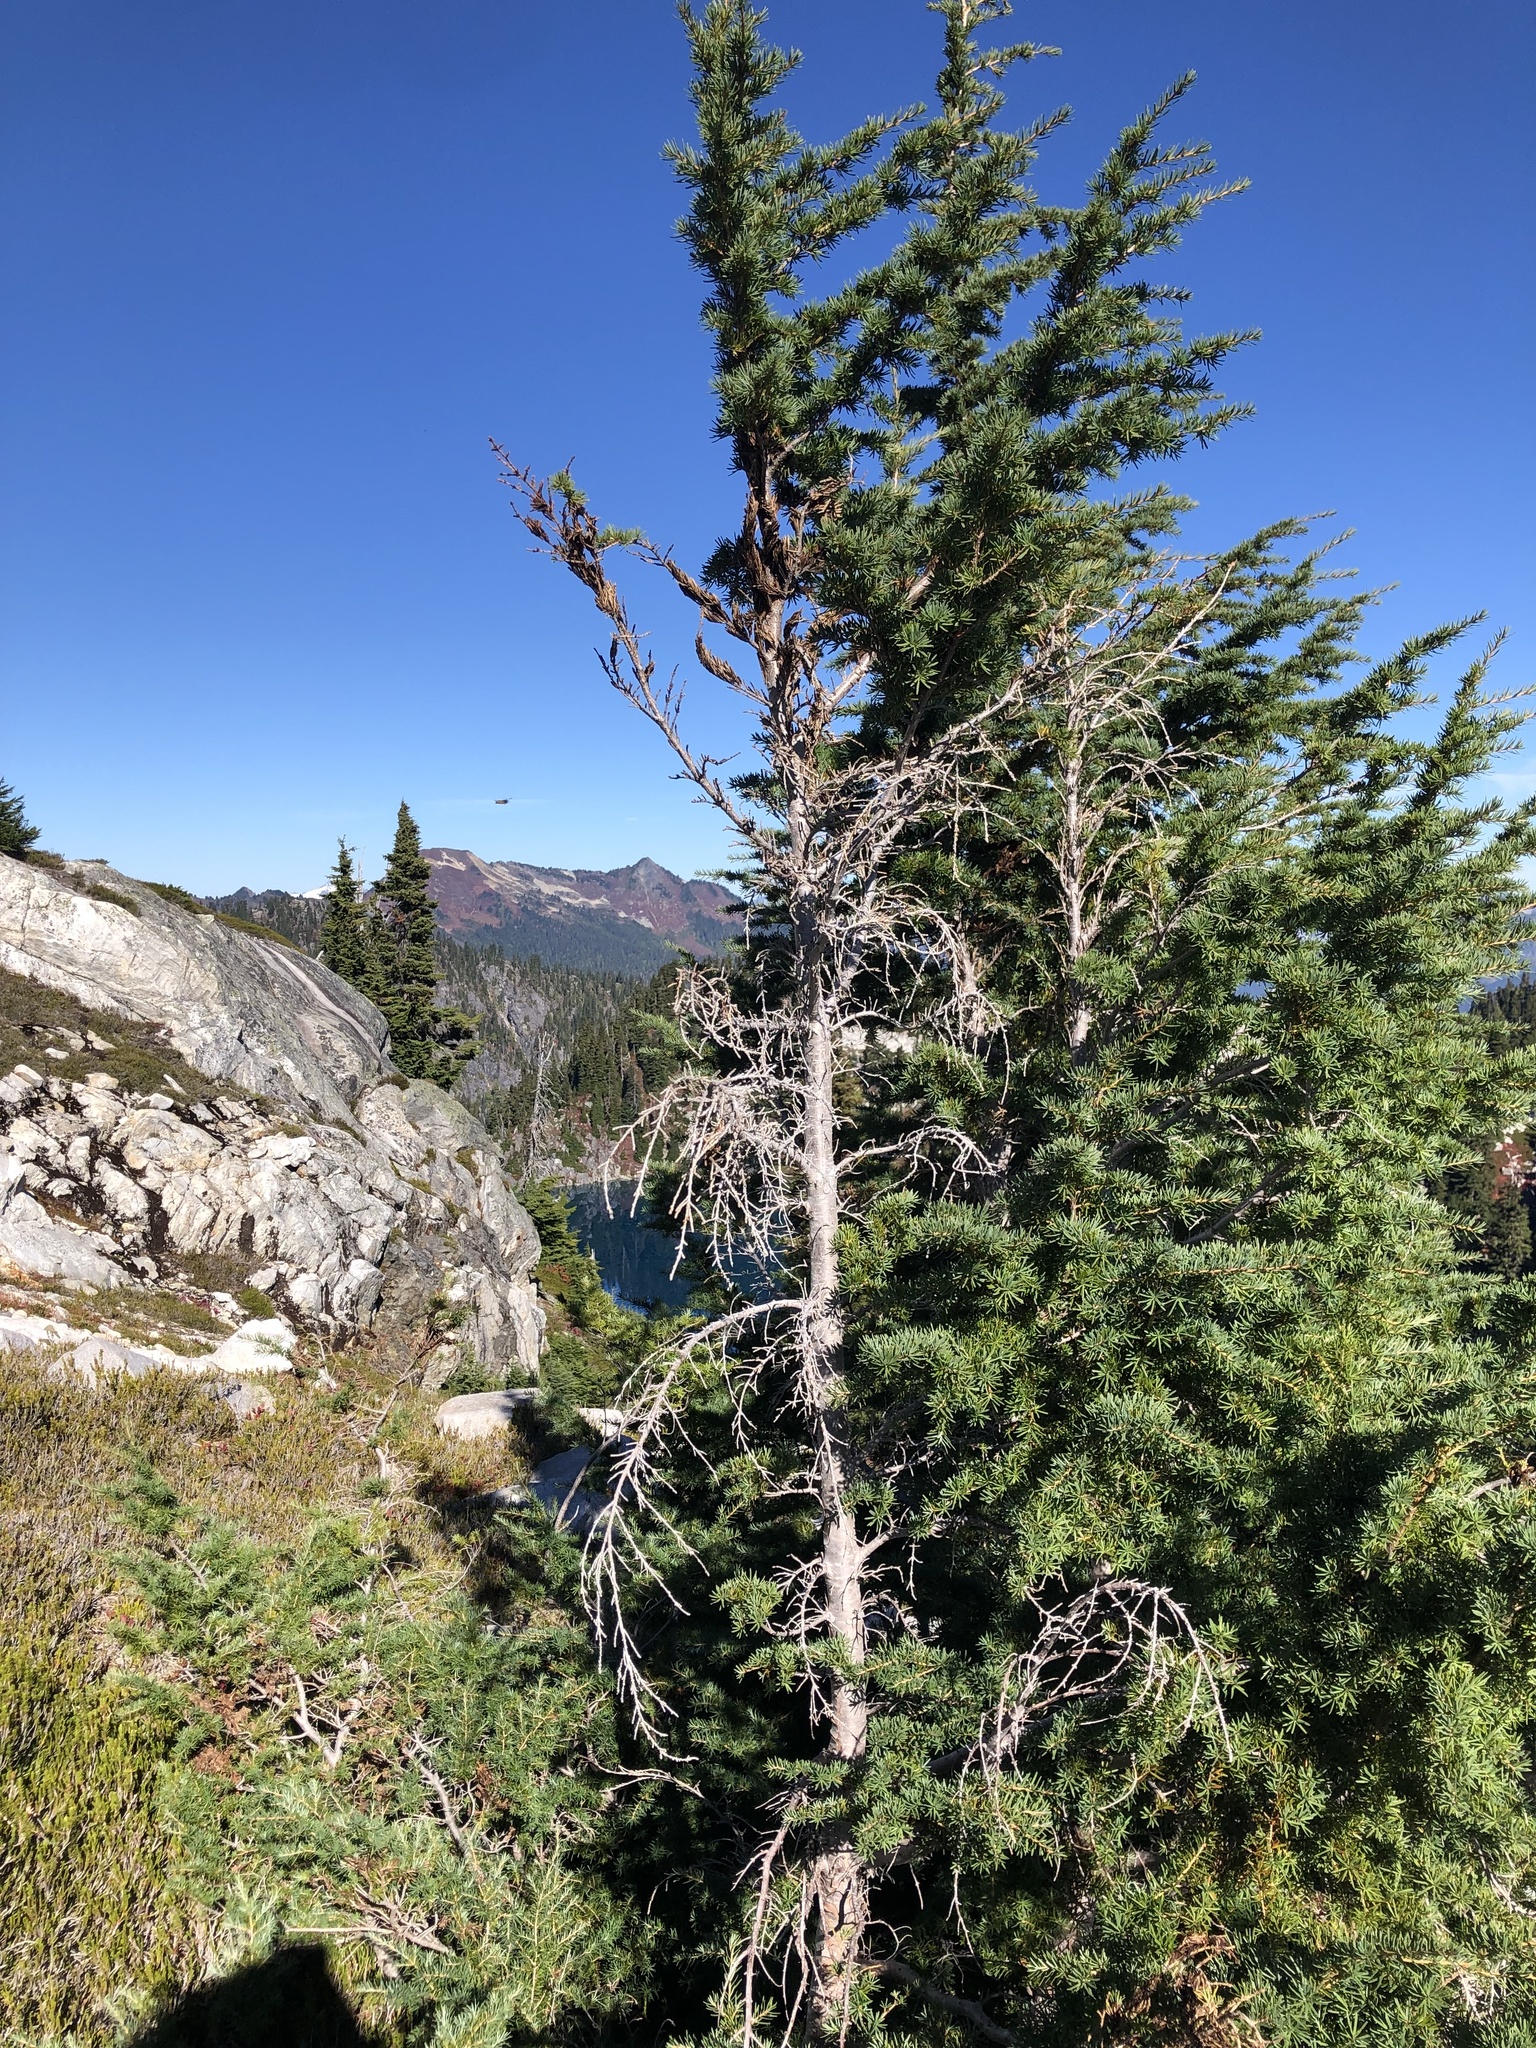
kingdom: Plantae
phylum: Tracheophyta
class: Pinopsida
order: Pinales
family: Pinaceae
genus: Tsuga
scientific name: Tsuga mertensiana
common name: Mountain hemlock
